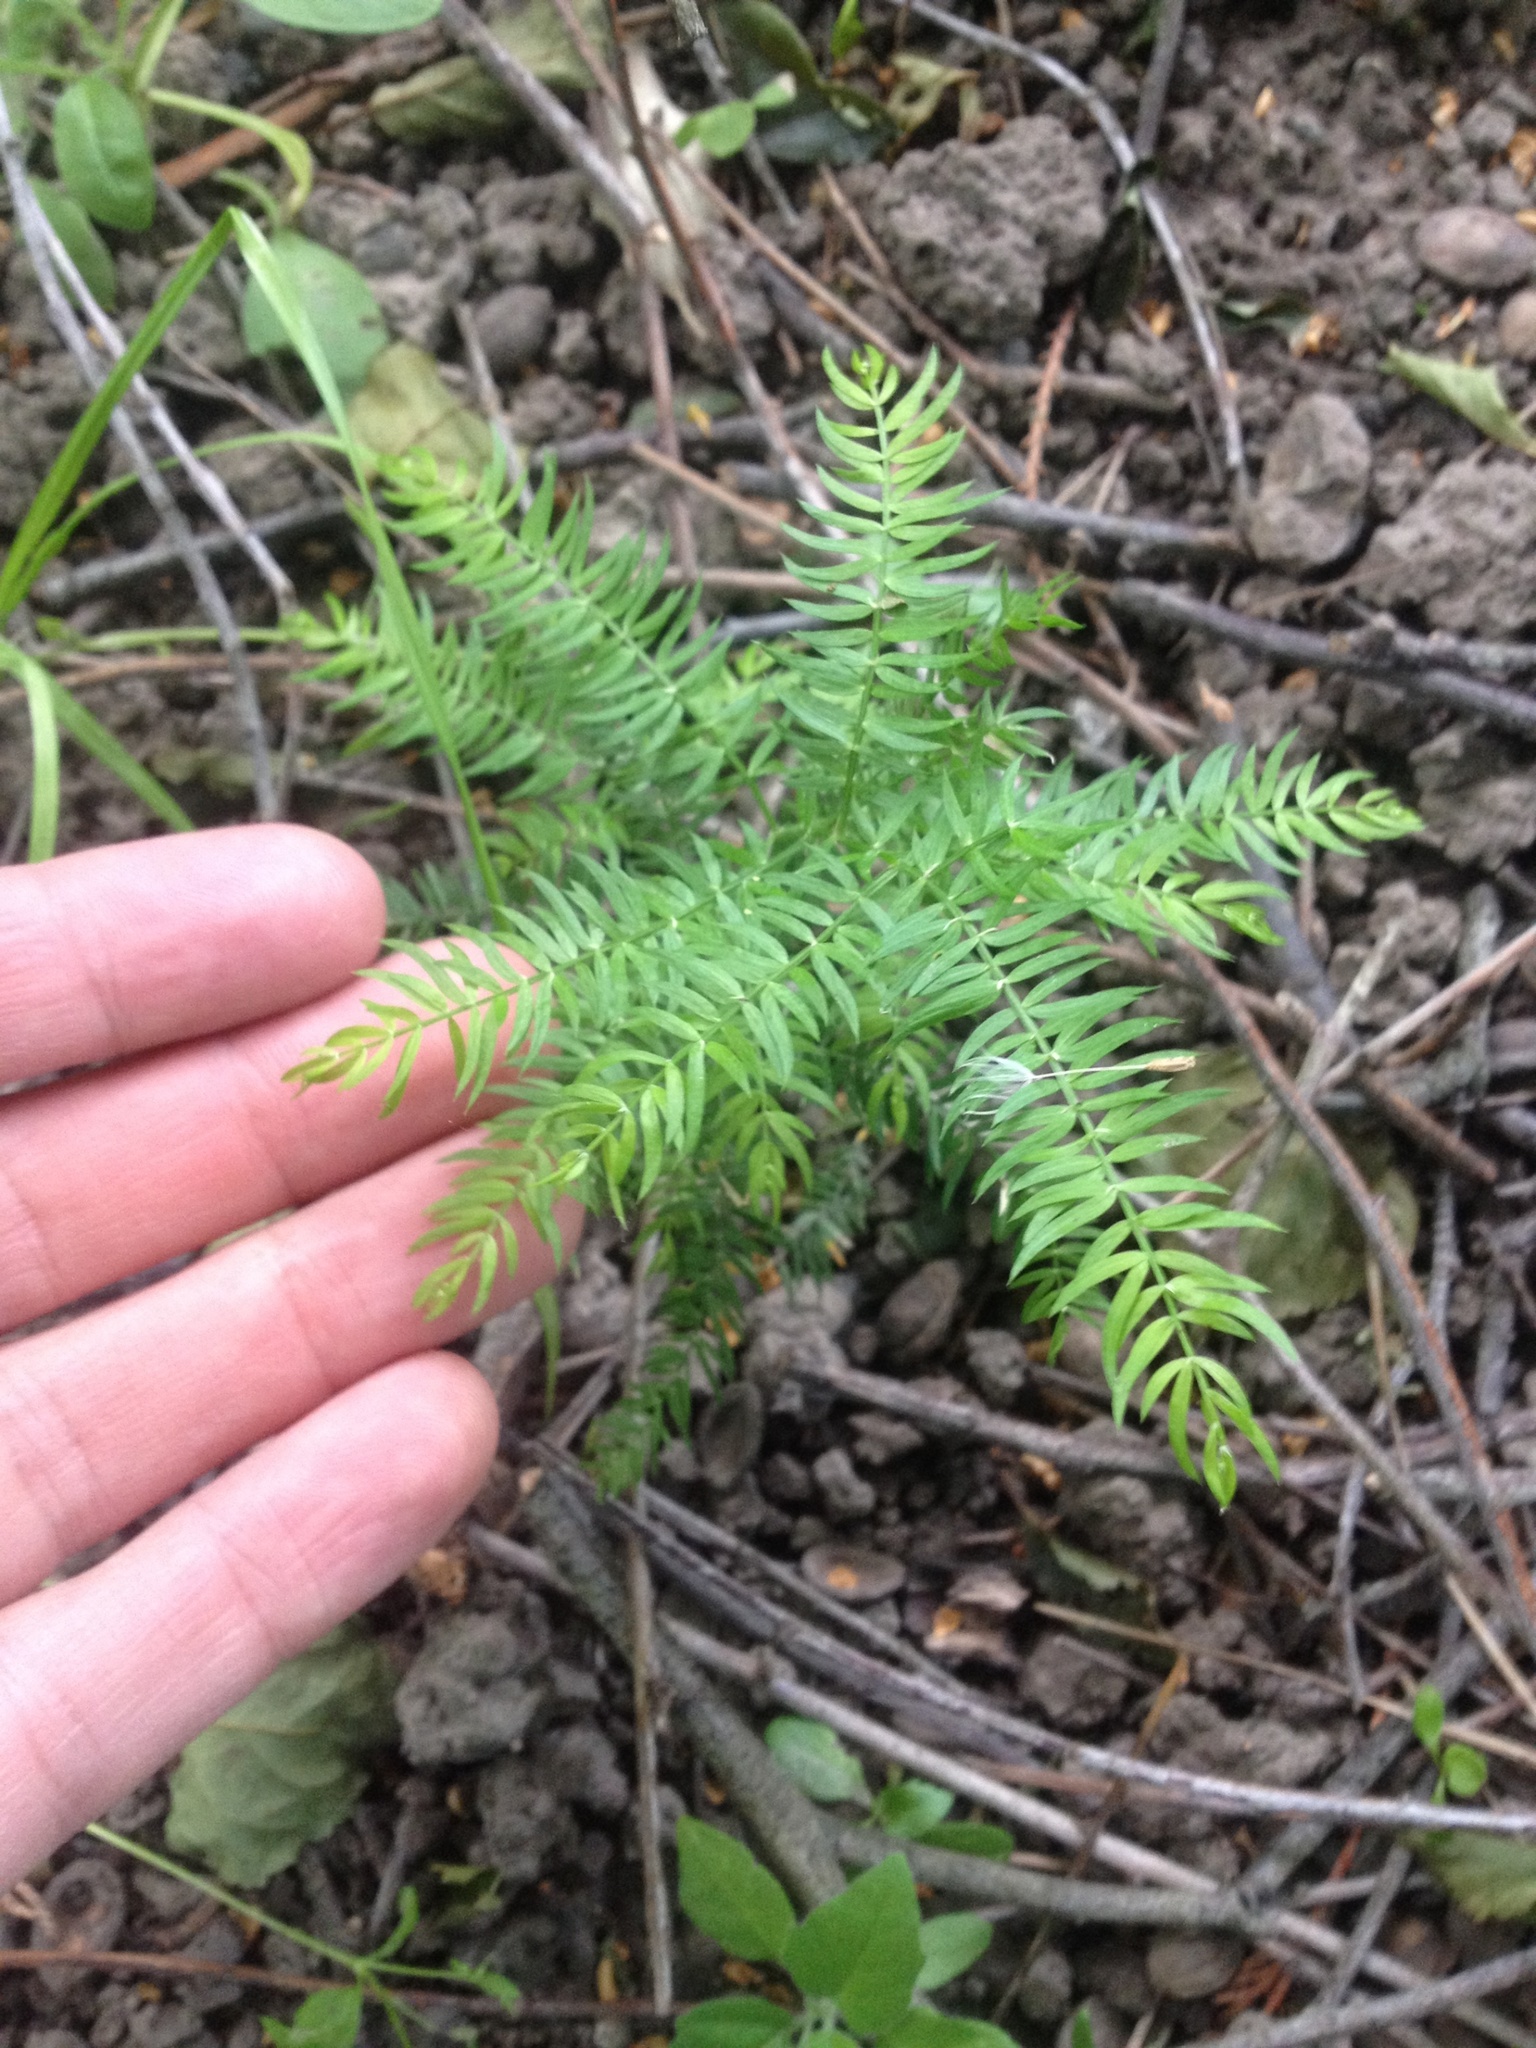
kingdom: Plantae
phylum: Tracheophyta
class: Liliopsida
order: Asparagales
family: Asparagaceae
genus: Asparagus
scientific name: Asparagus scandens
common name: Asparagus-fern
